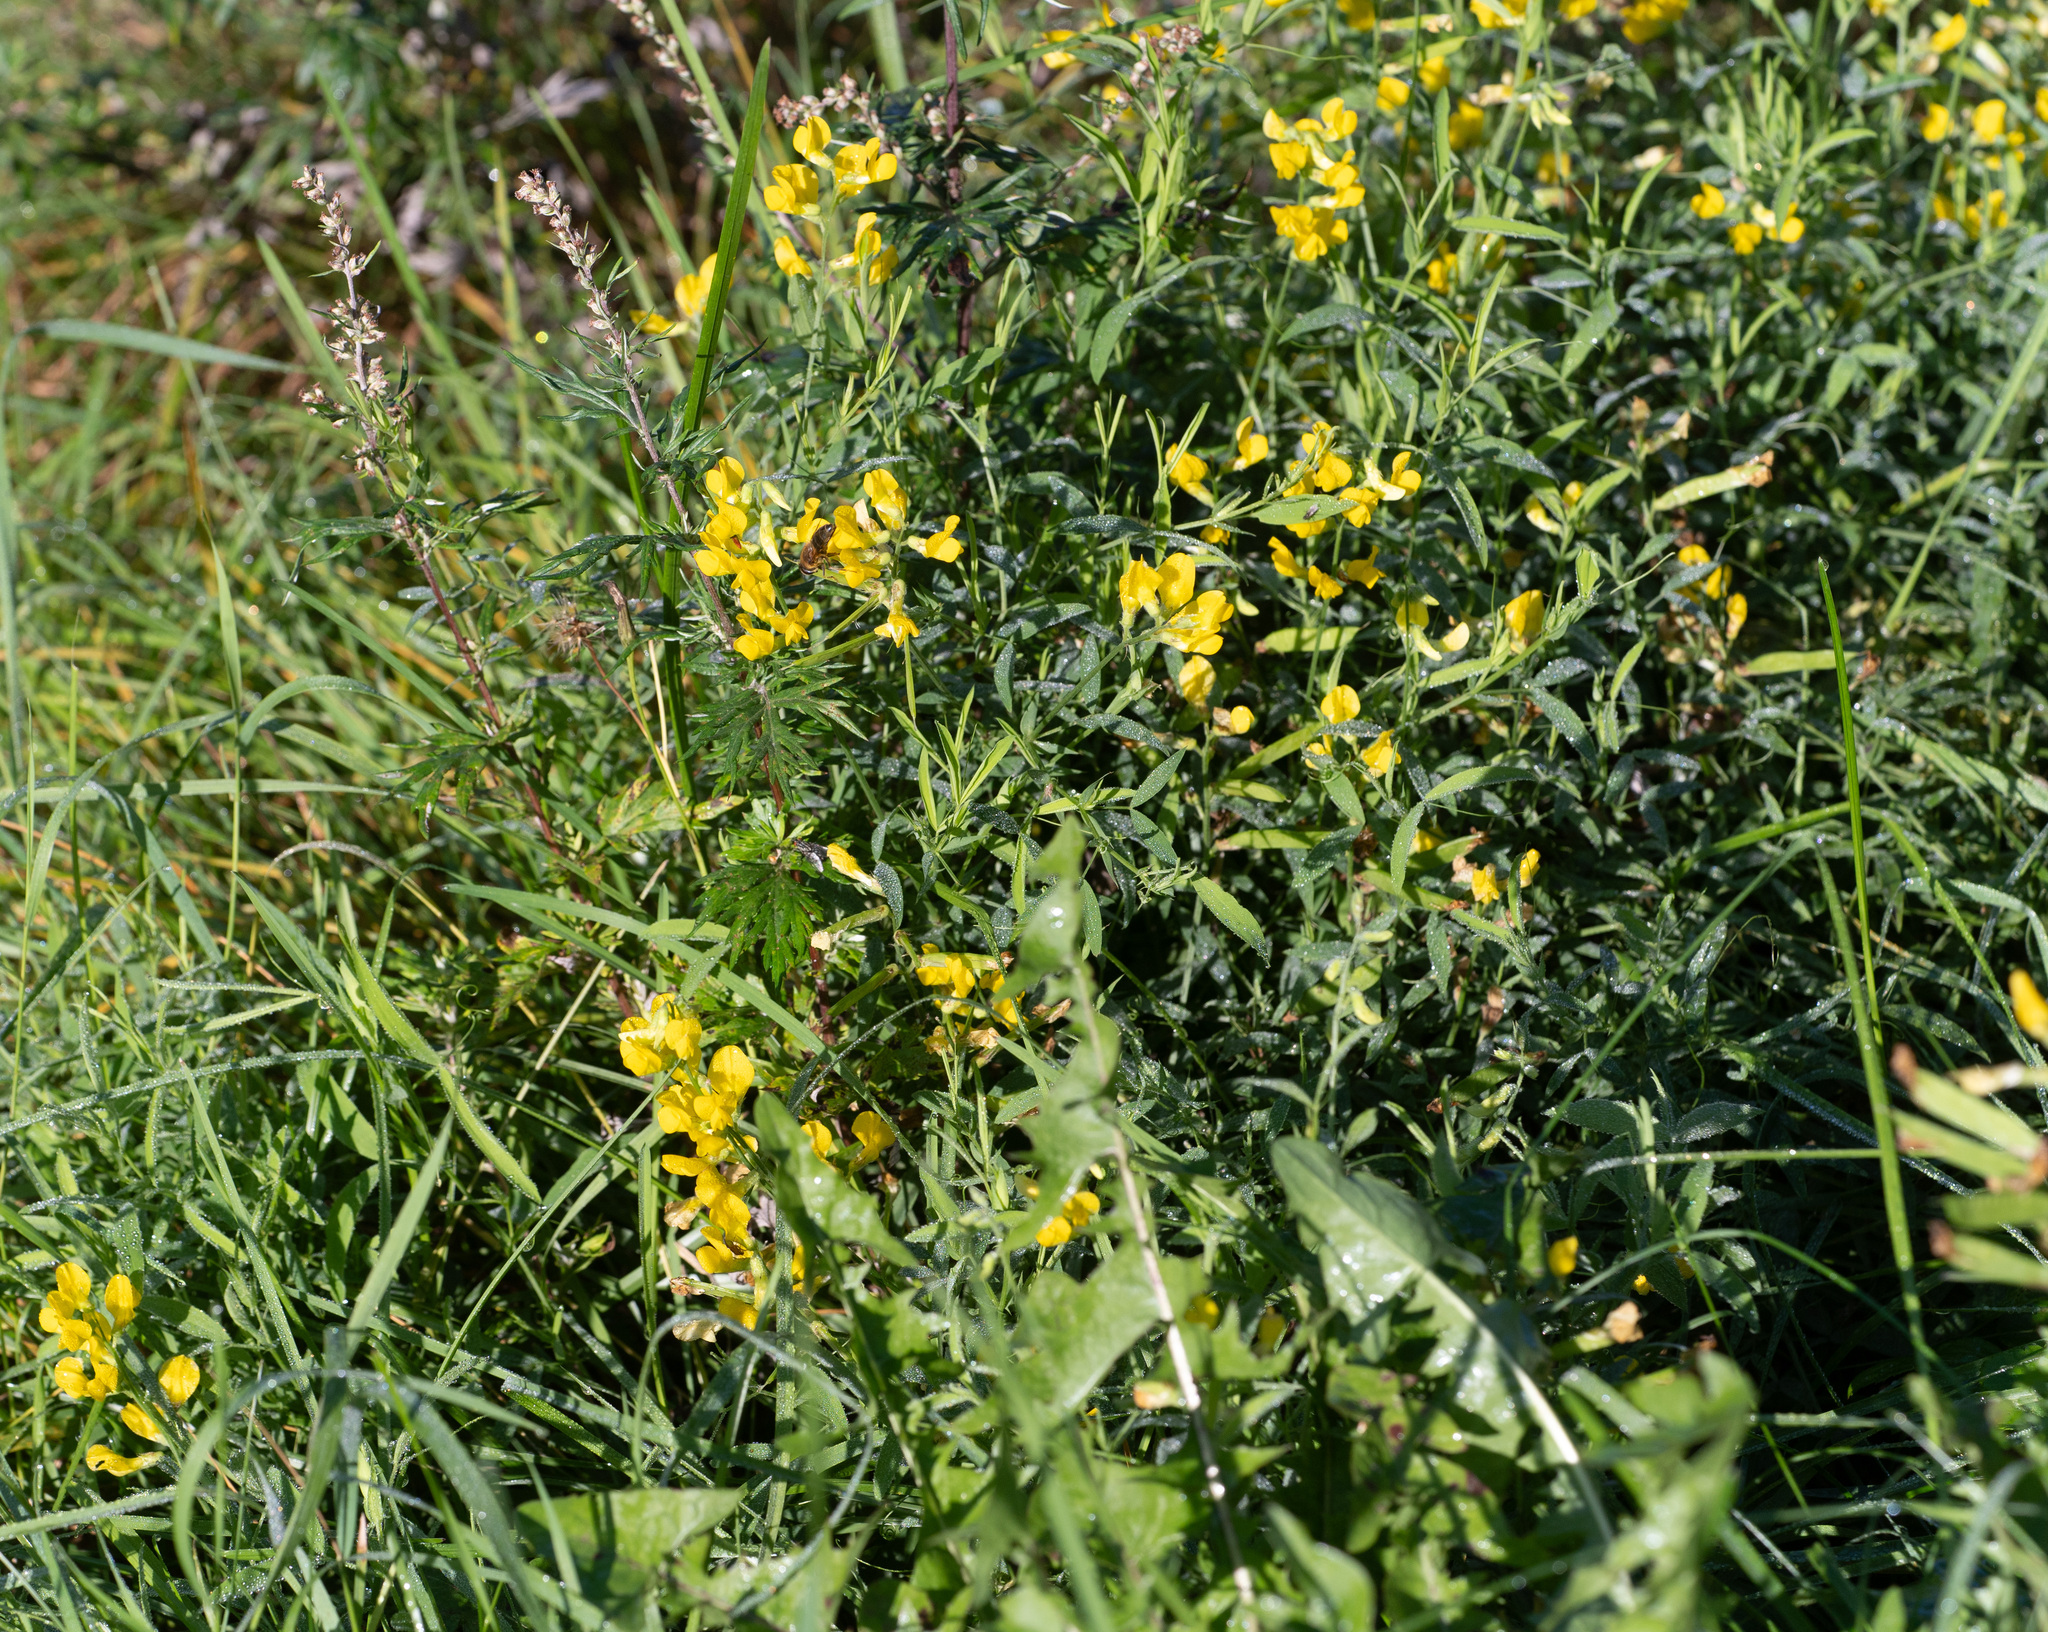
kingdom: Plantae
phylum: Tracheophyta
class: Magnoliopsida
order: Fabales
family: Fabaceae
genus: Lathyrus
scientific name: Lathyrus pratensis
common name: Meadow vetchling
